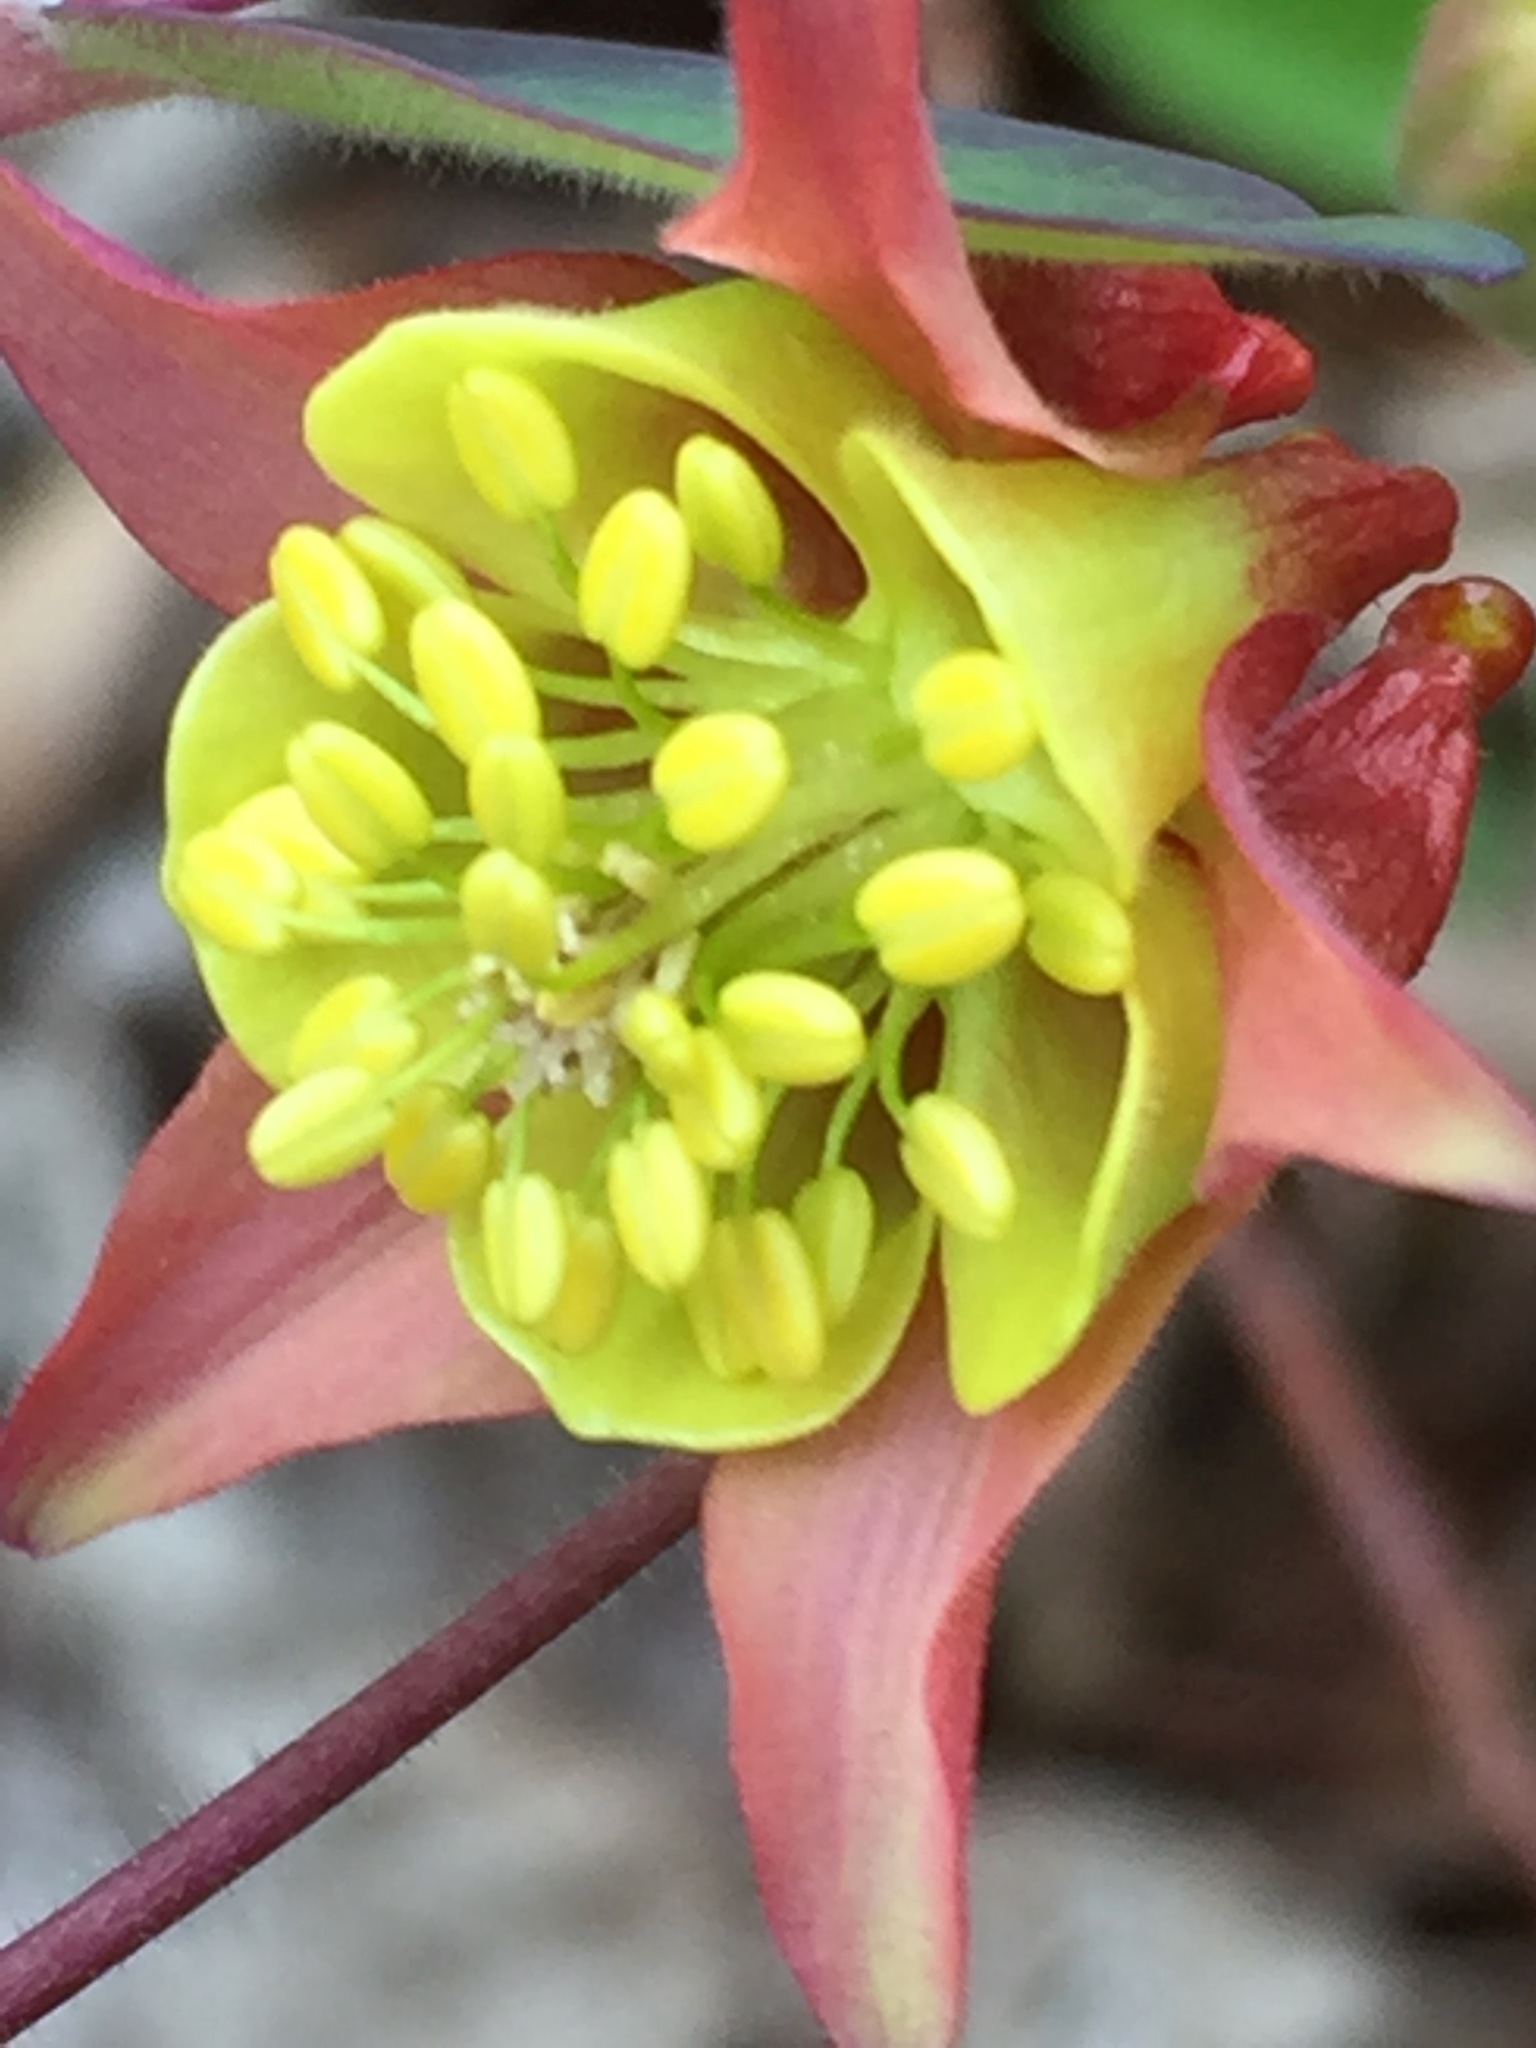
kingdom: Plantae
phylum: Tracheophyta
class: Magnoliopsida
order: Ranunculales
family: Ranunculaceae
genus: Aquilegia
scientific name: Aquilegia canadensis
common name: American columbine
